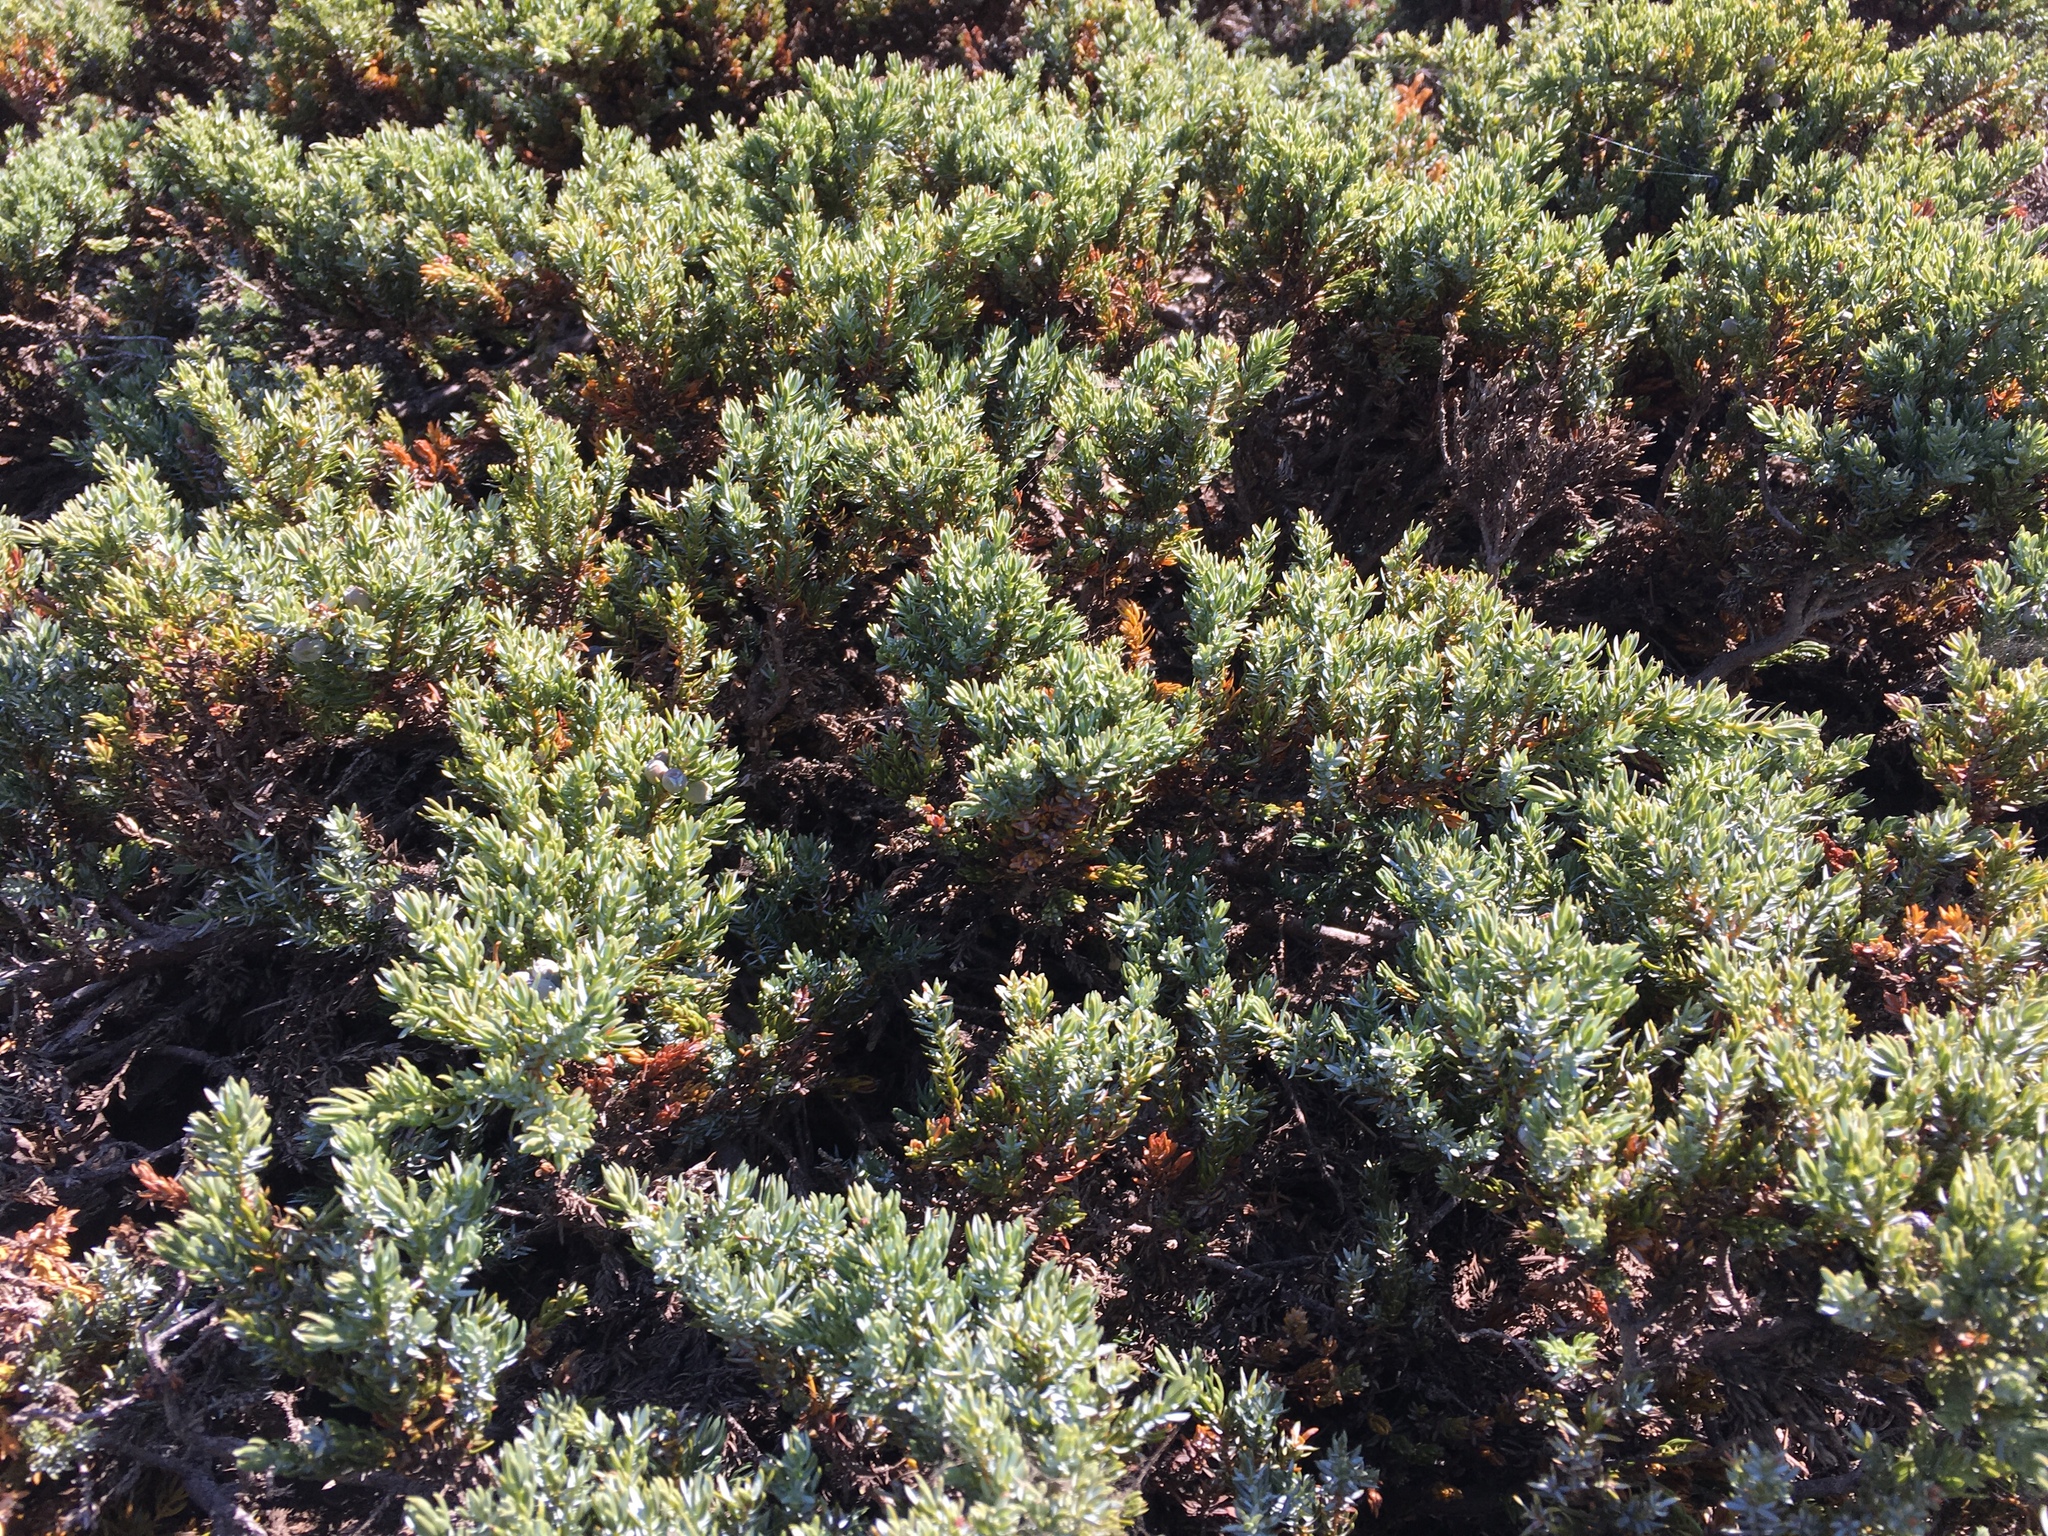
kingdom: Plantae
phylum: Tracheophyta
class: Pinopsida
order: Pinales
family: Cupressaceae
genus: Juniperus
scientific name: Juniperus communis
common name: Common juniper
